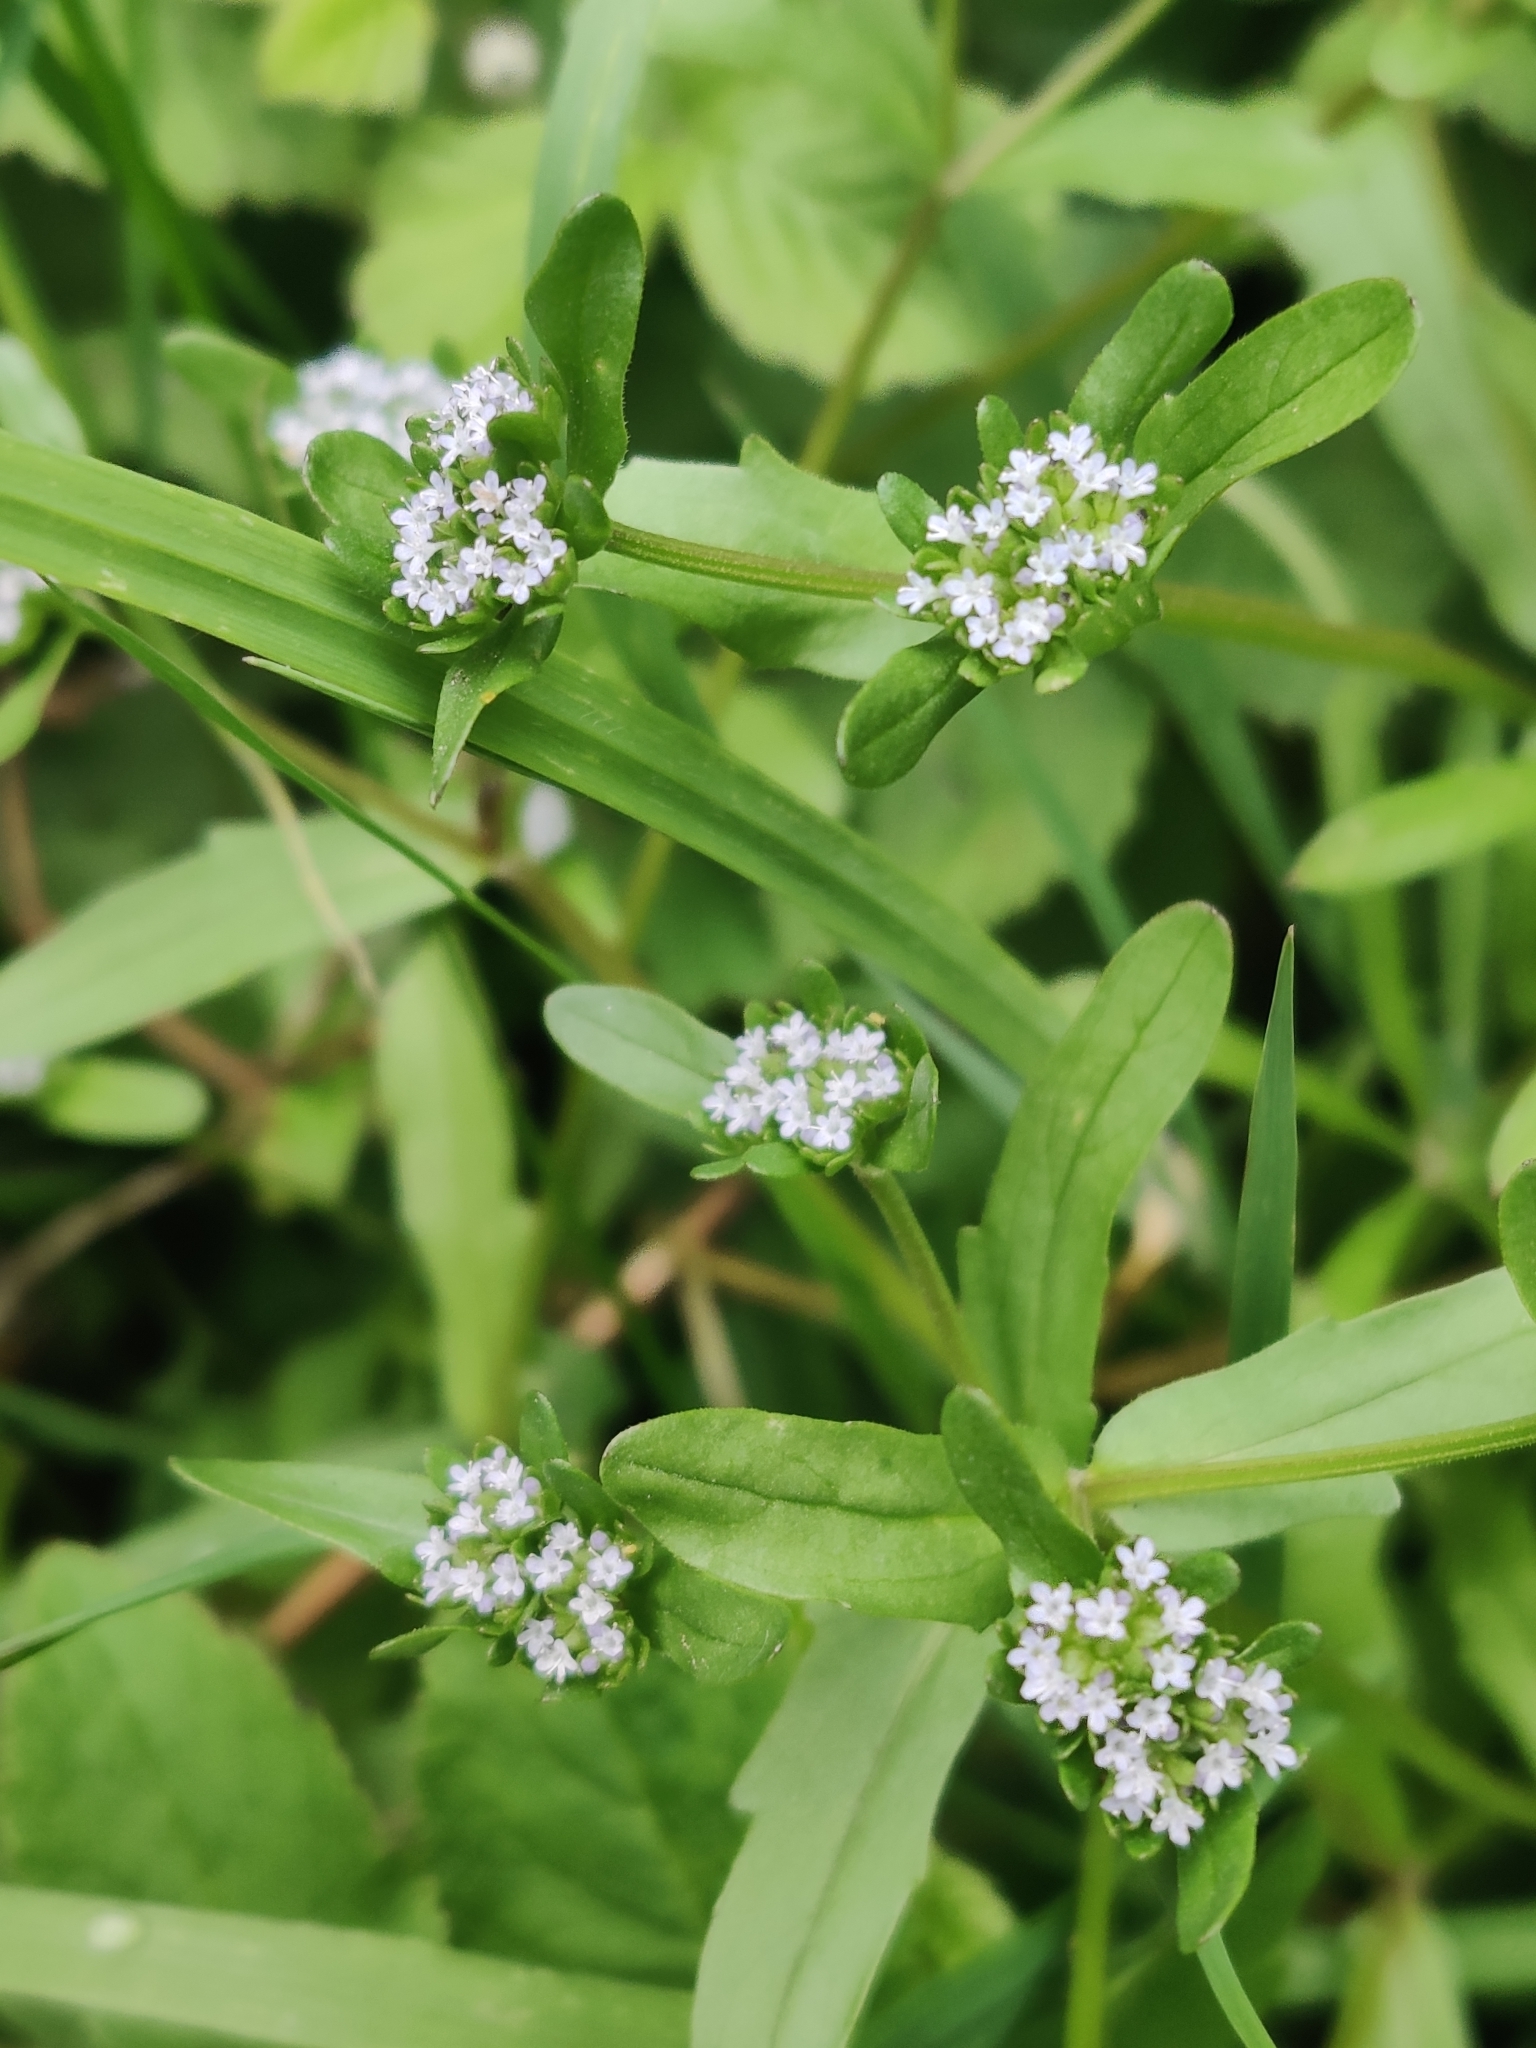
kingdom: Plantae
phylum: Tracheophyta
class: Magnoliopsida
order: Dipsacales
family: Caprifoliaceae
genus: Valerianella
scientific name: Valerianella locusta
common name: Common cornsalad
